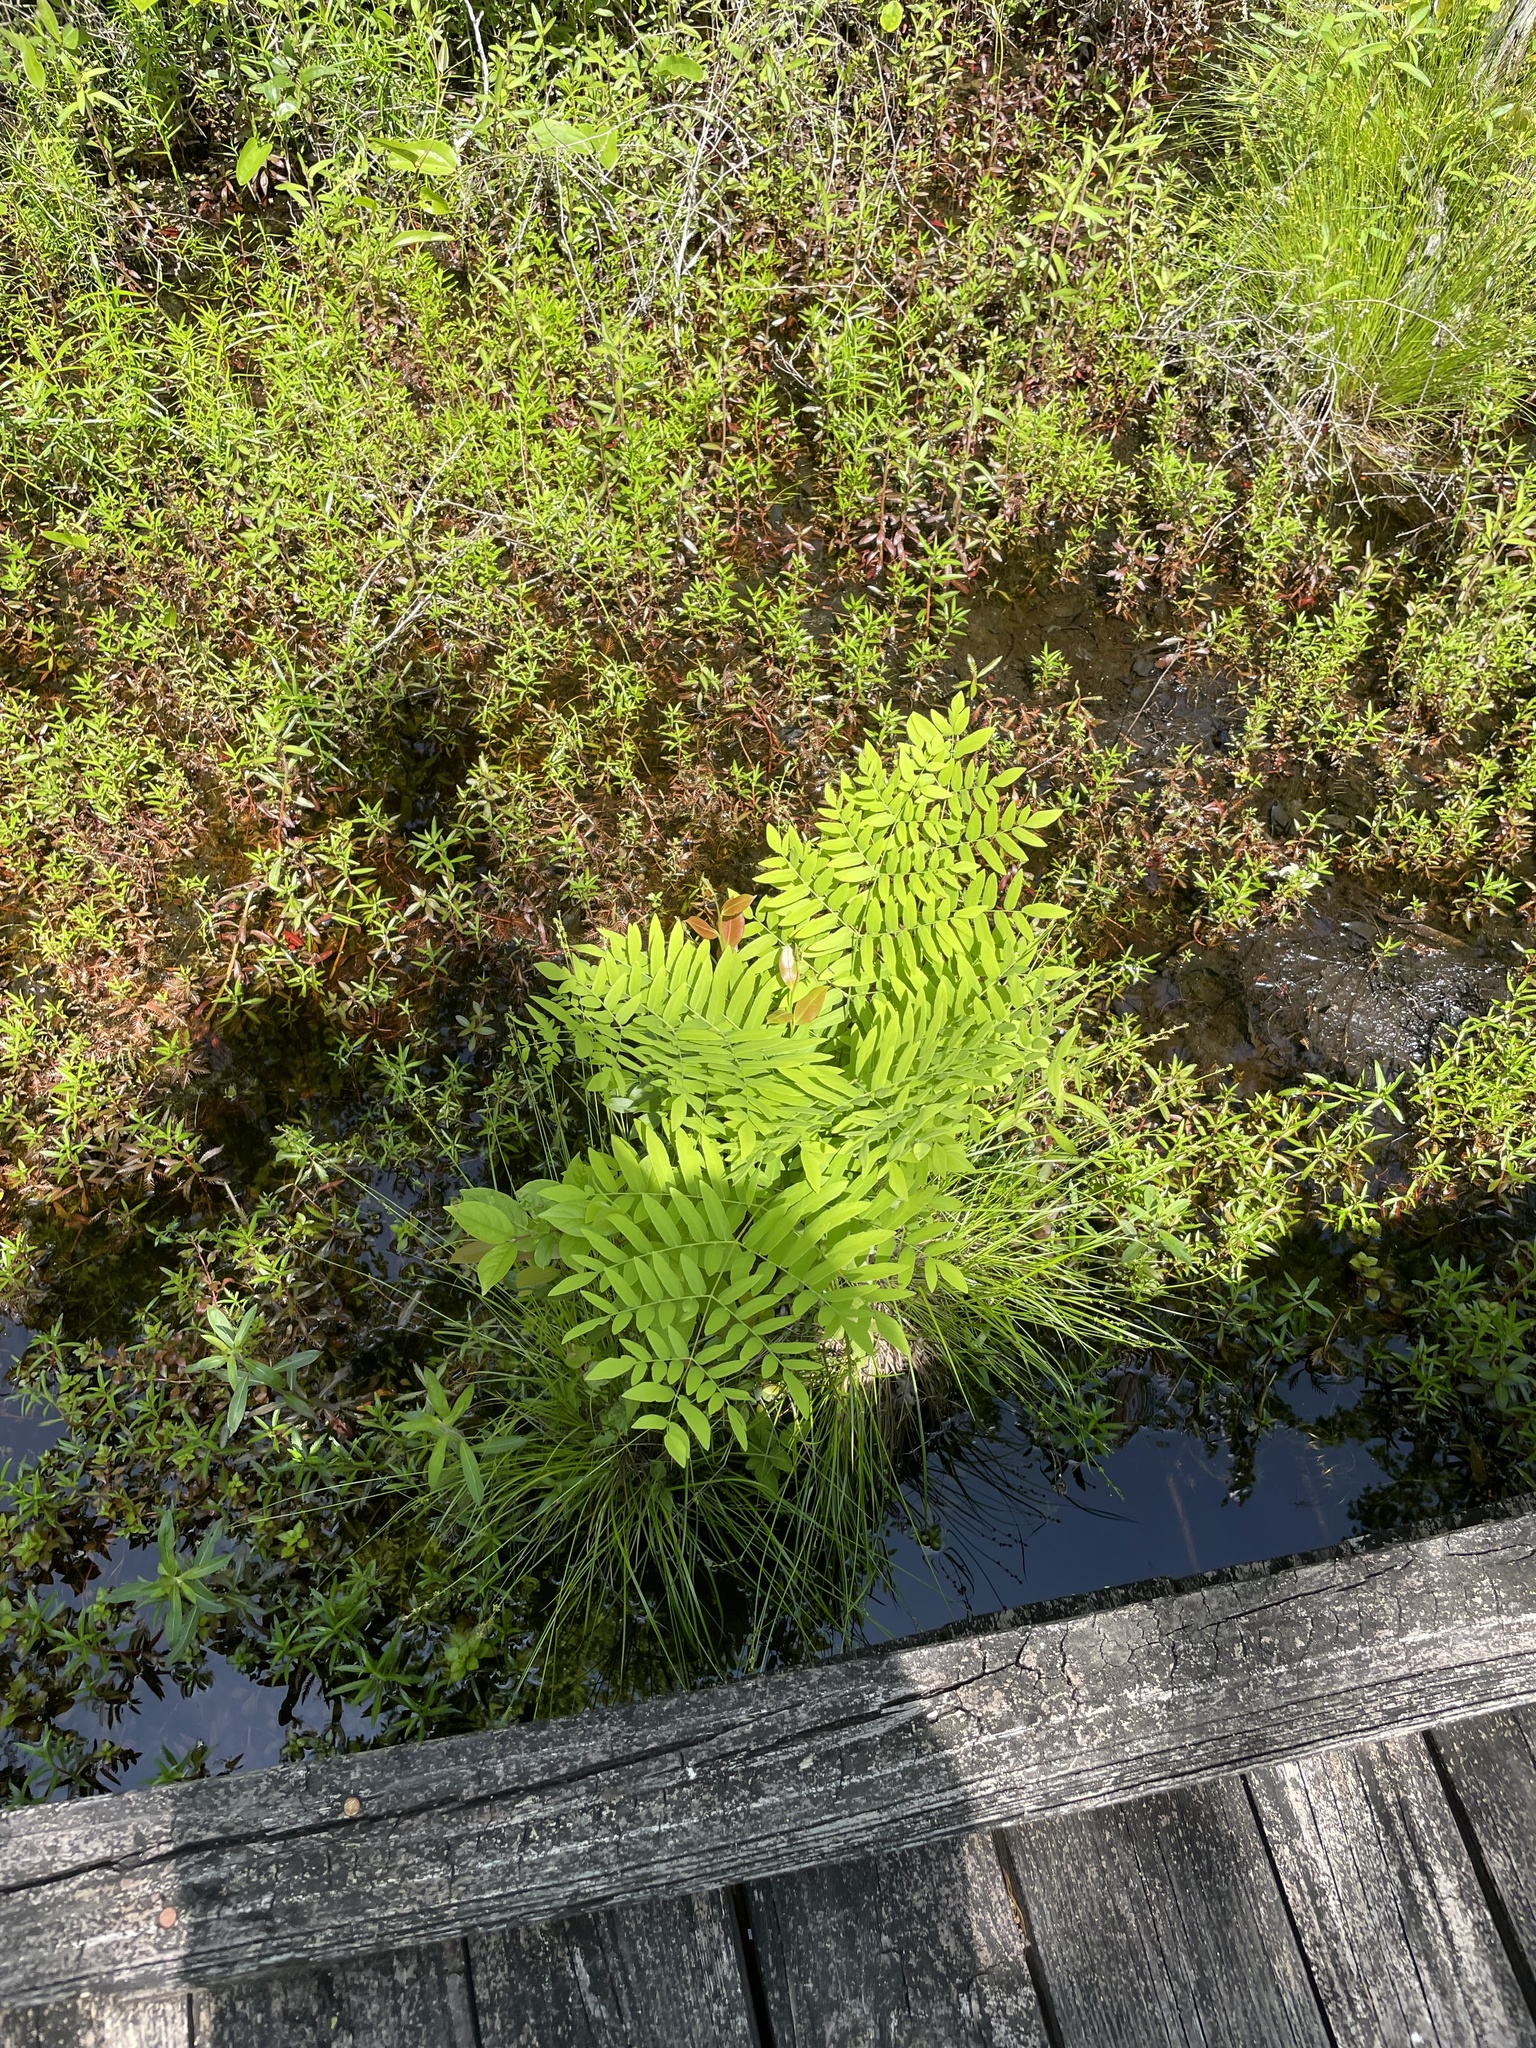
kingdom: Plantae
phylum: Tracheophyta
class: Polypodiopsida
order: Osmundales
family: Osmundaceae
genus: Osmunda
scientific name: Osmunda spectabilis
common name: American royal fern
